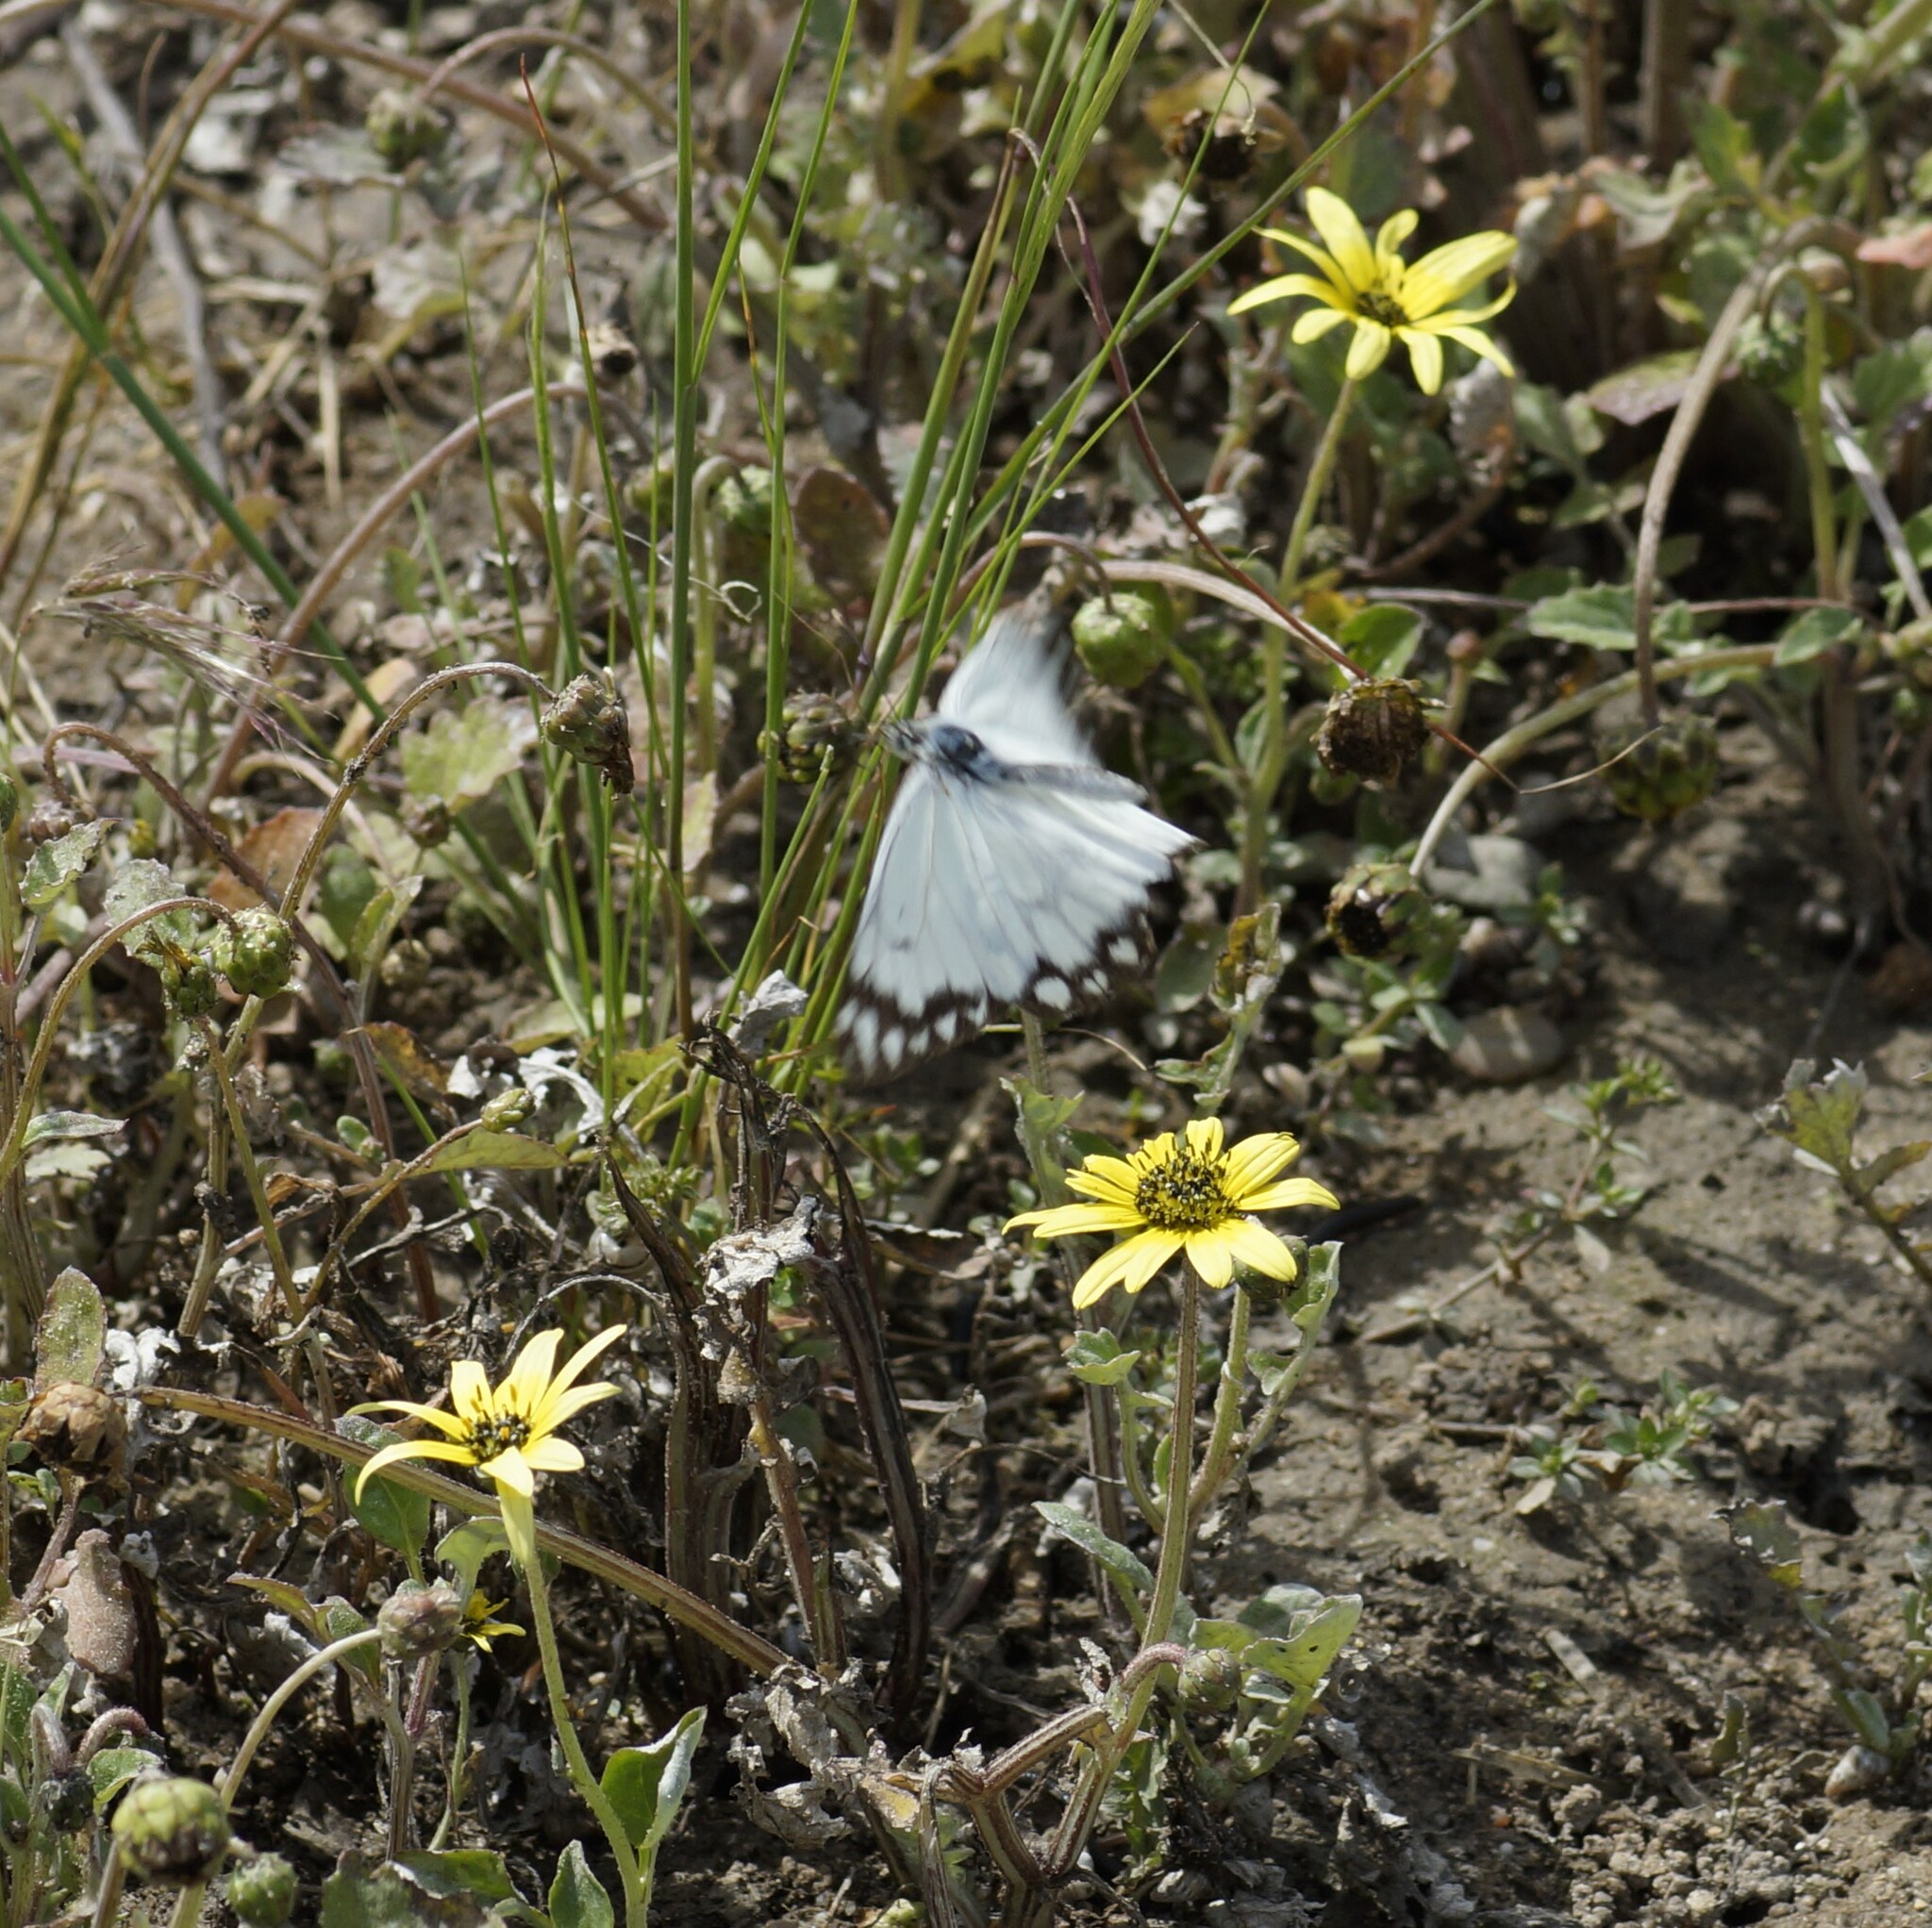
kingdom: Animalia
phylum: Arthropoda
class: Insecta
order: Lepidoptera
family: Pieridae
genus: Belenois
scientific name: Belenois java
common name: Caper white
